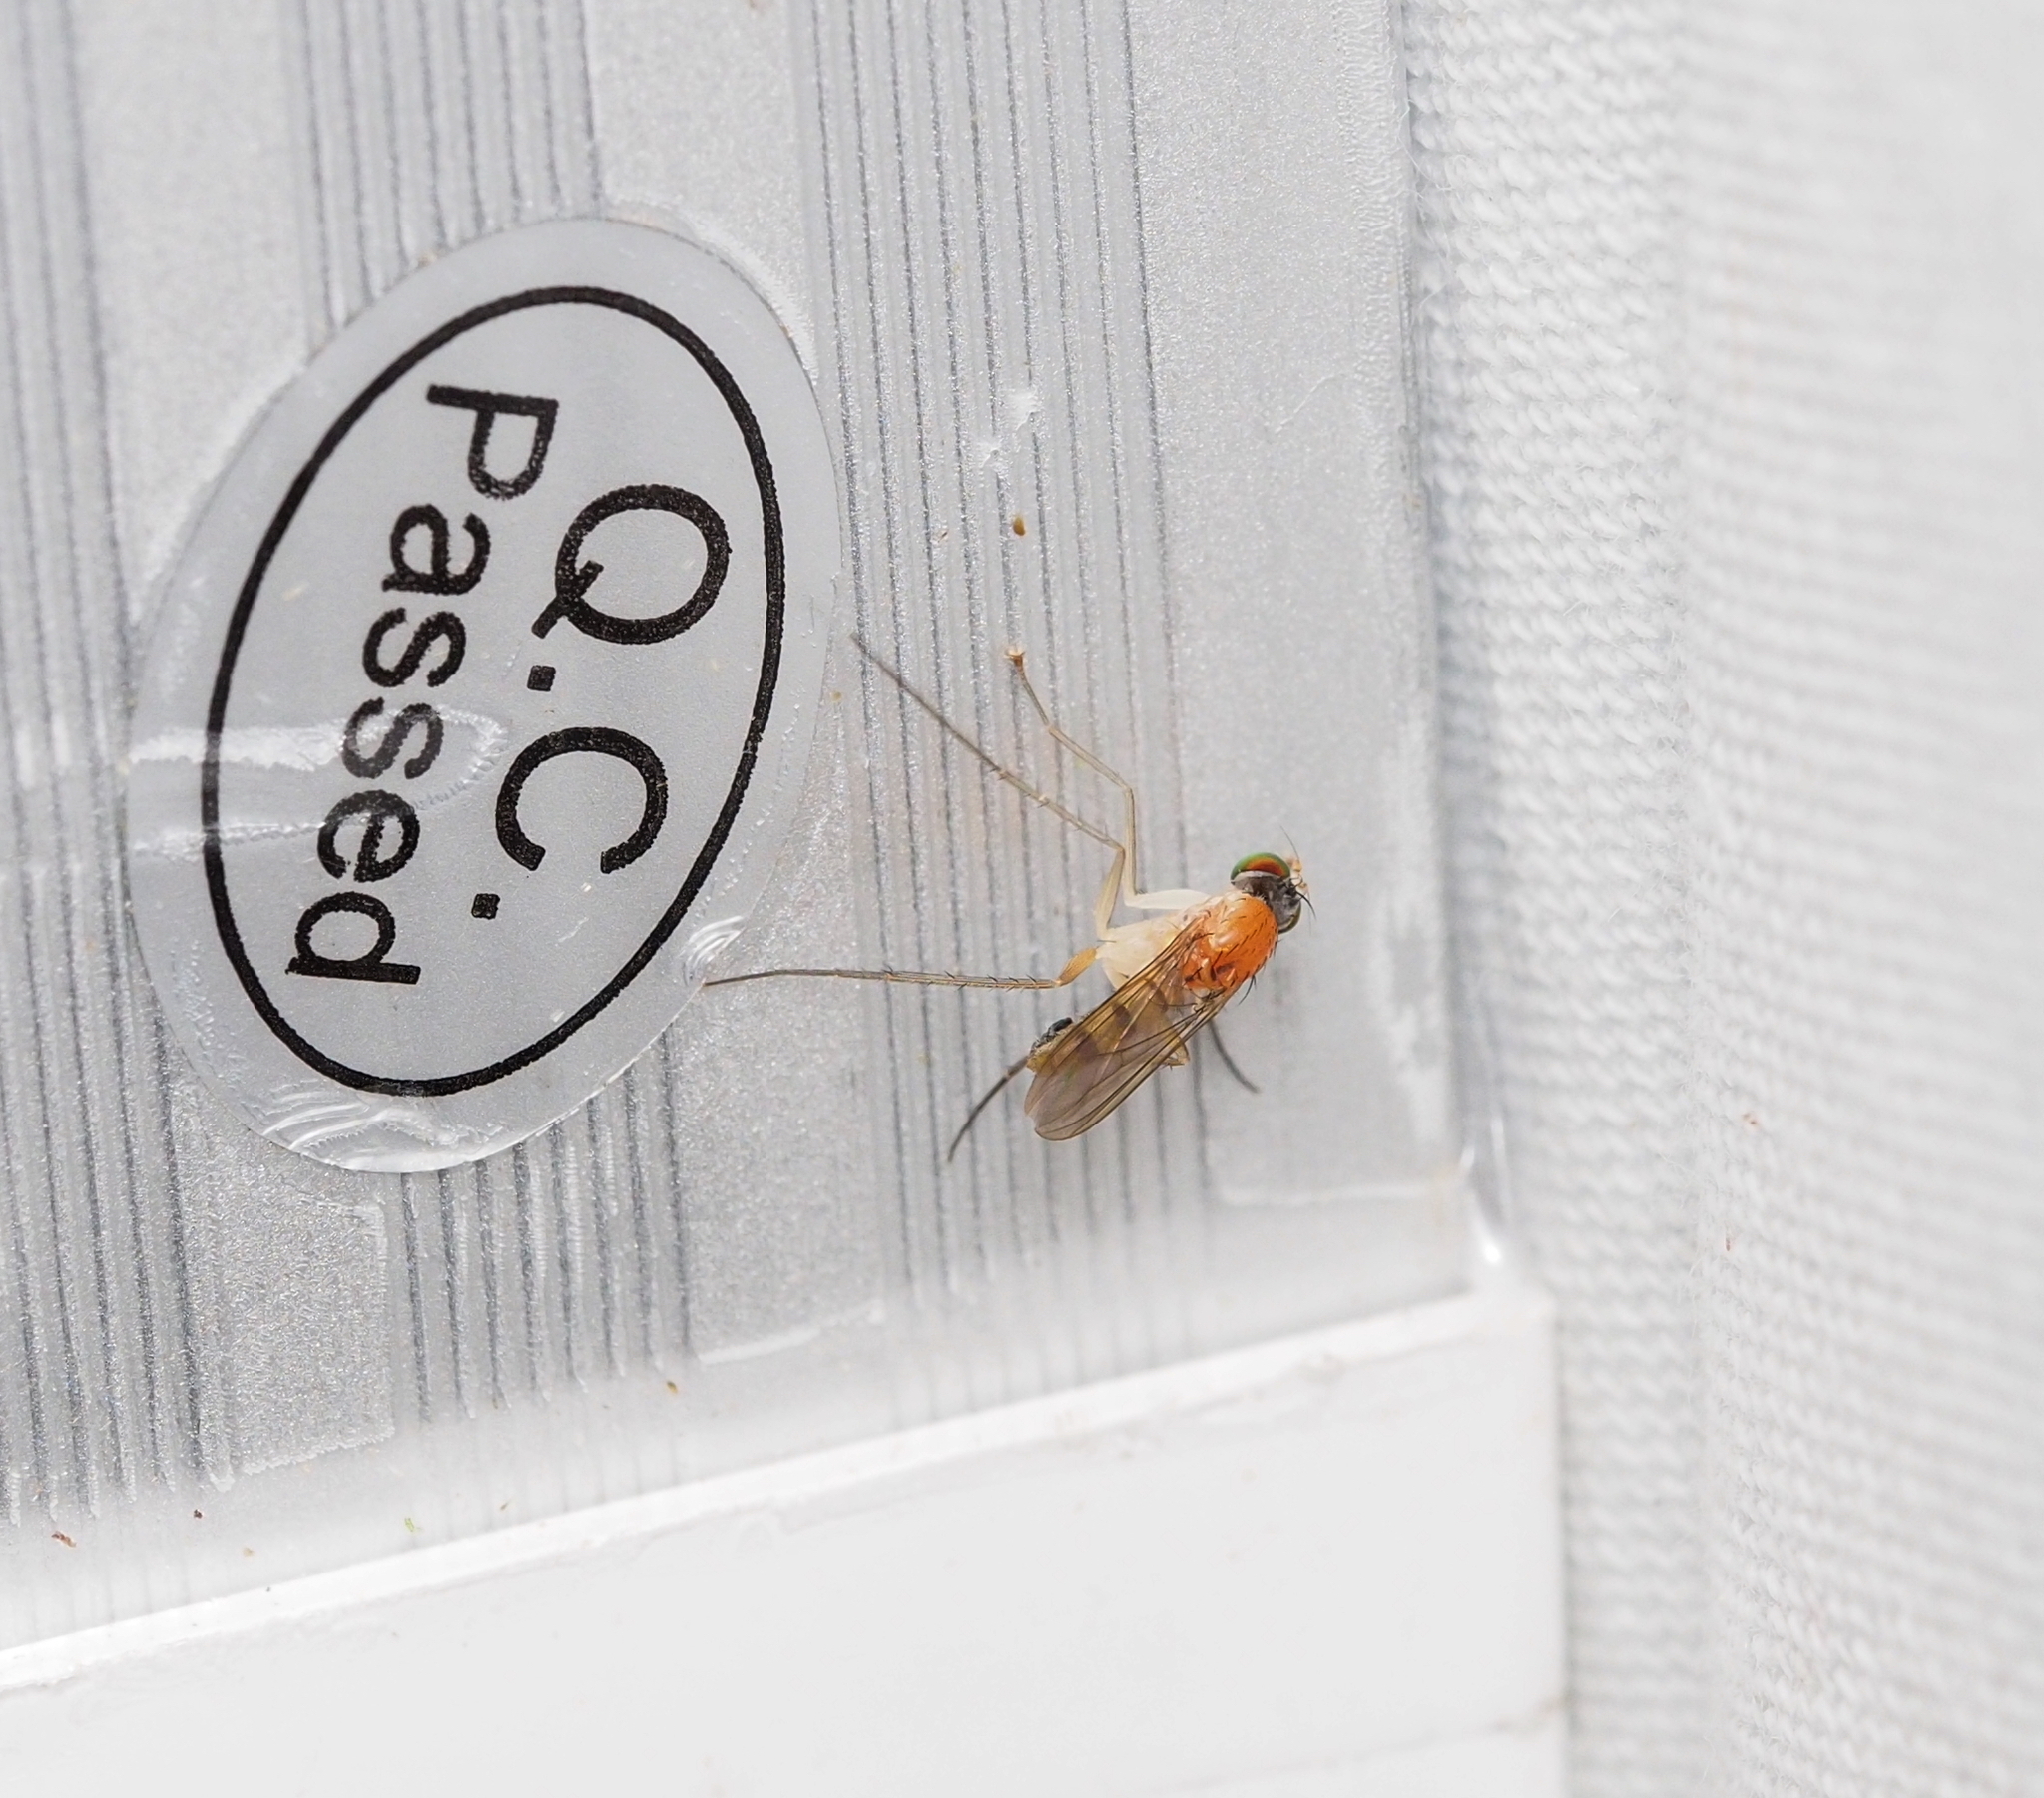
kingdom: Animalia
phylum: Arthropoda
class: Insecta
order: Diptera
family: Dolichopodidae
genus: Neurigona
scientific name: Neurigona pallida
